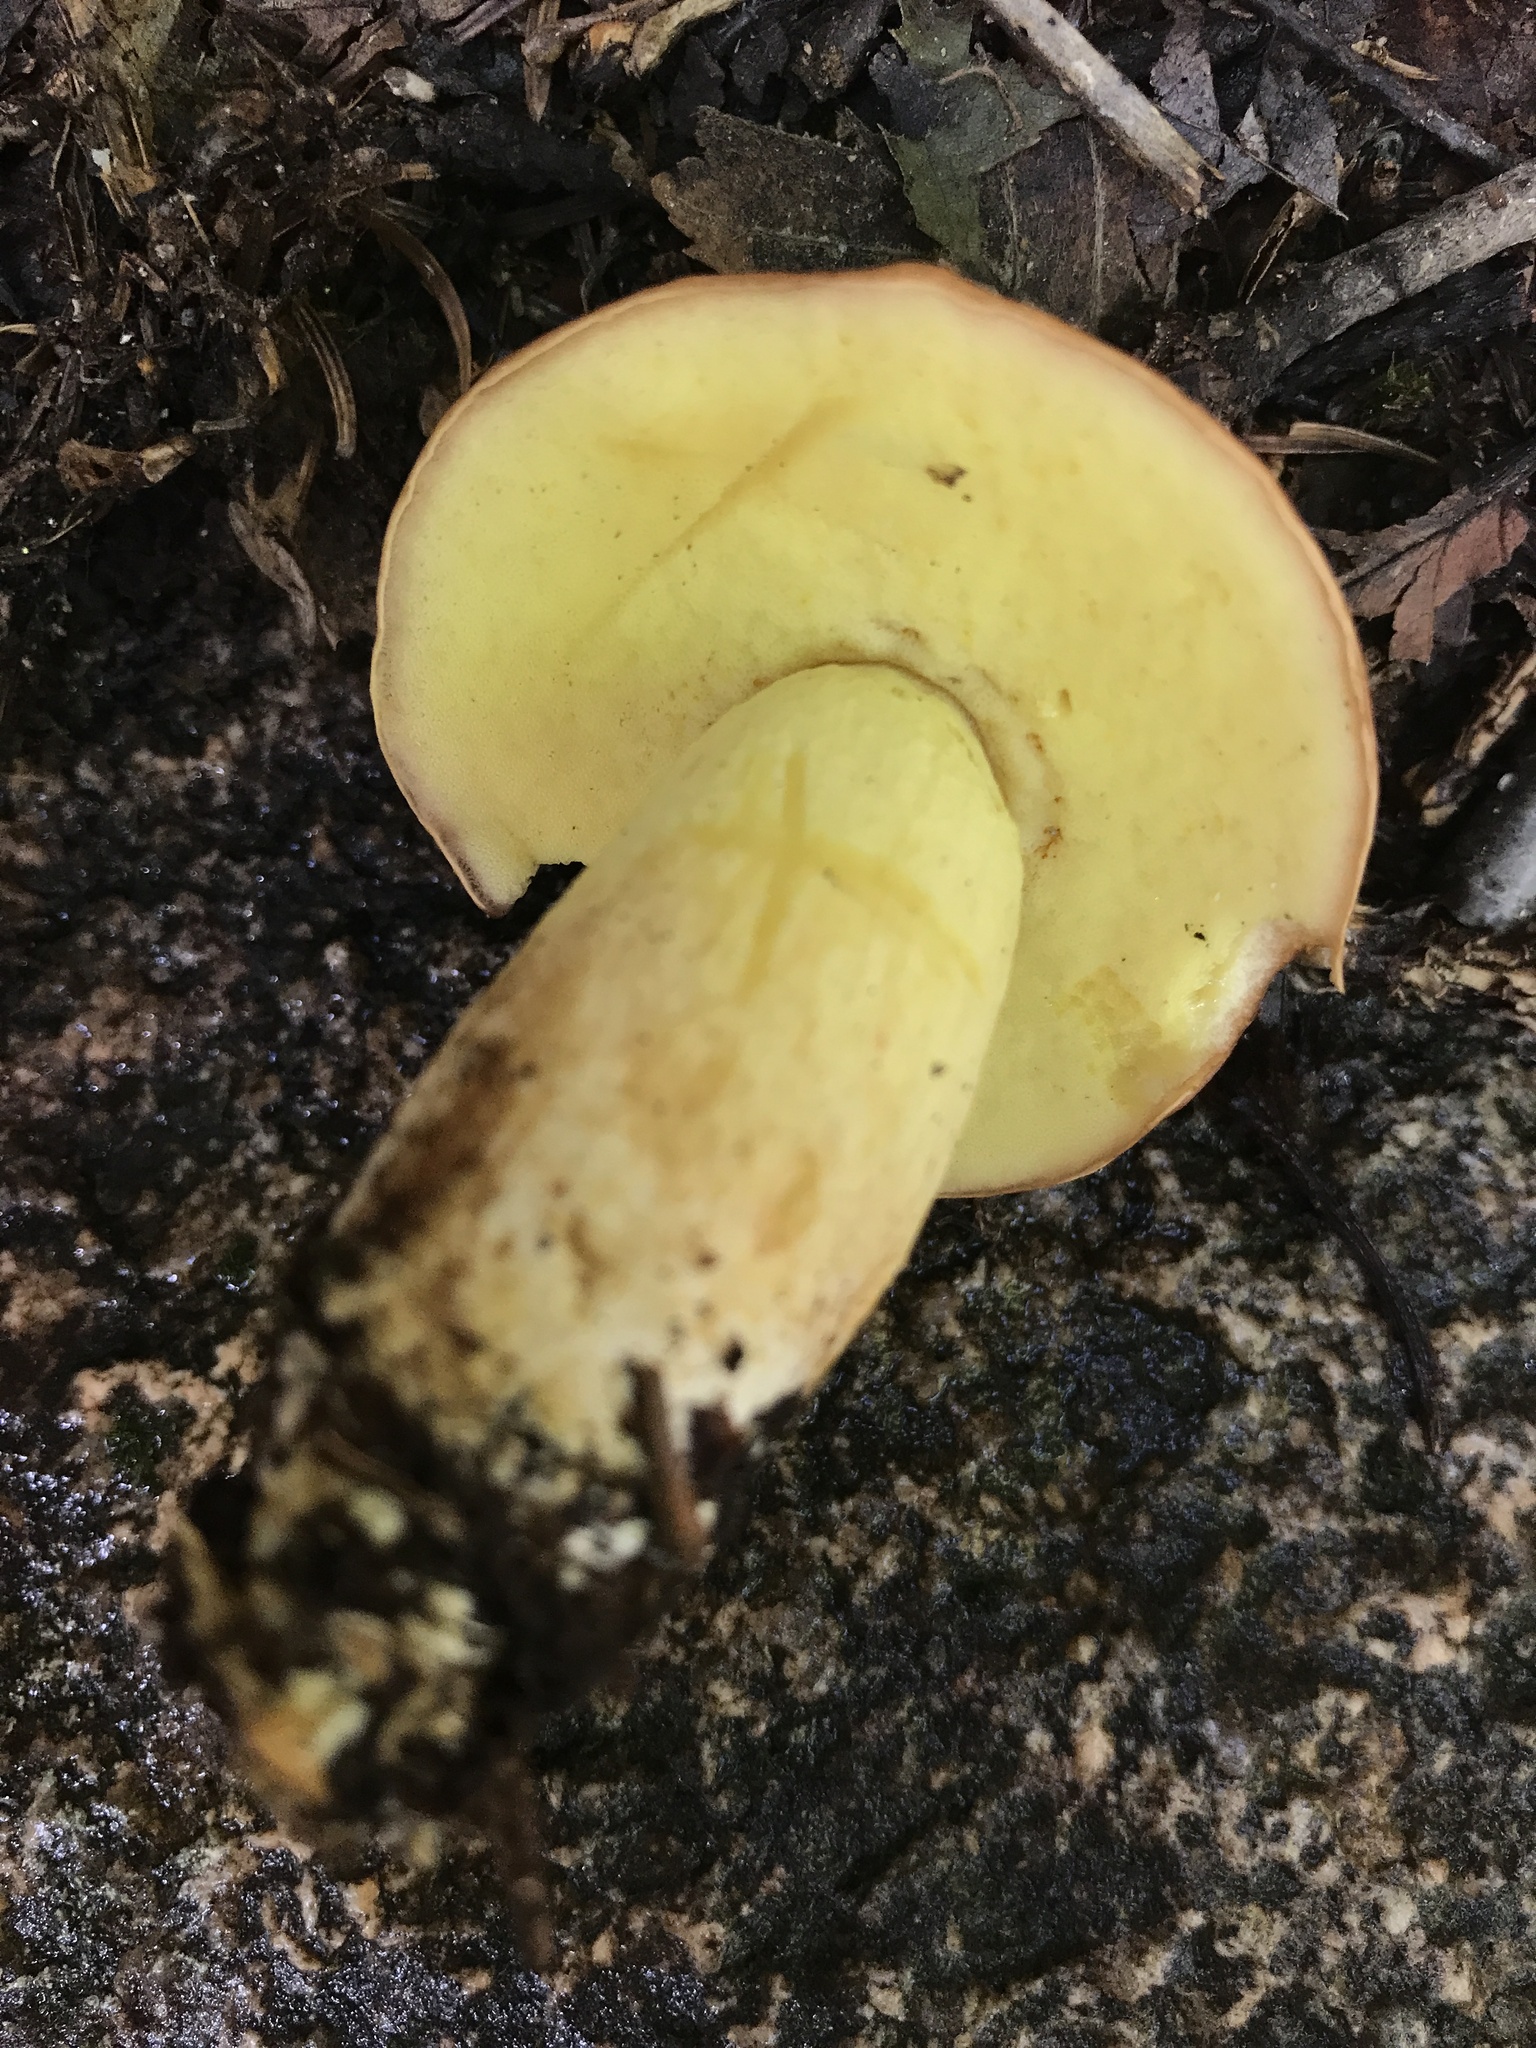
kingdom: Fungi
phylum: Basidiomycota
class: Agaricomycetes
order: Boletales
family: Boletaceae
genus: Hemileccinum
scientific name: Hemileccinum subglabripes
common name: Smoothish-stemmed bolete
